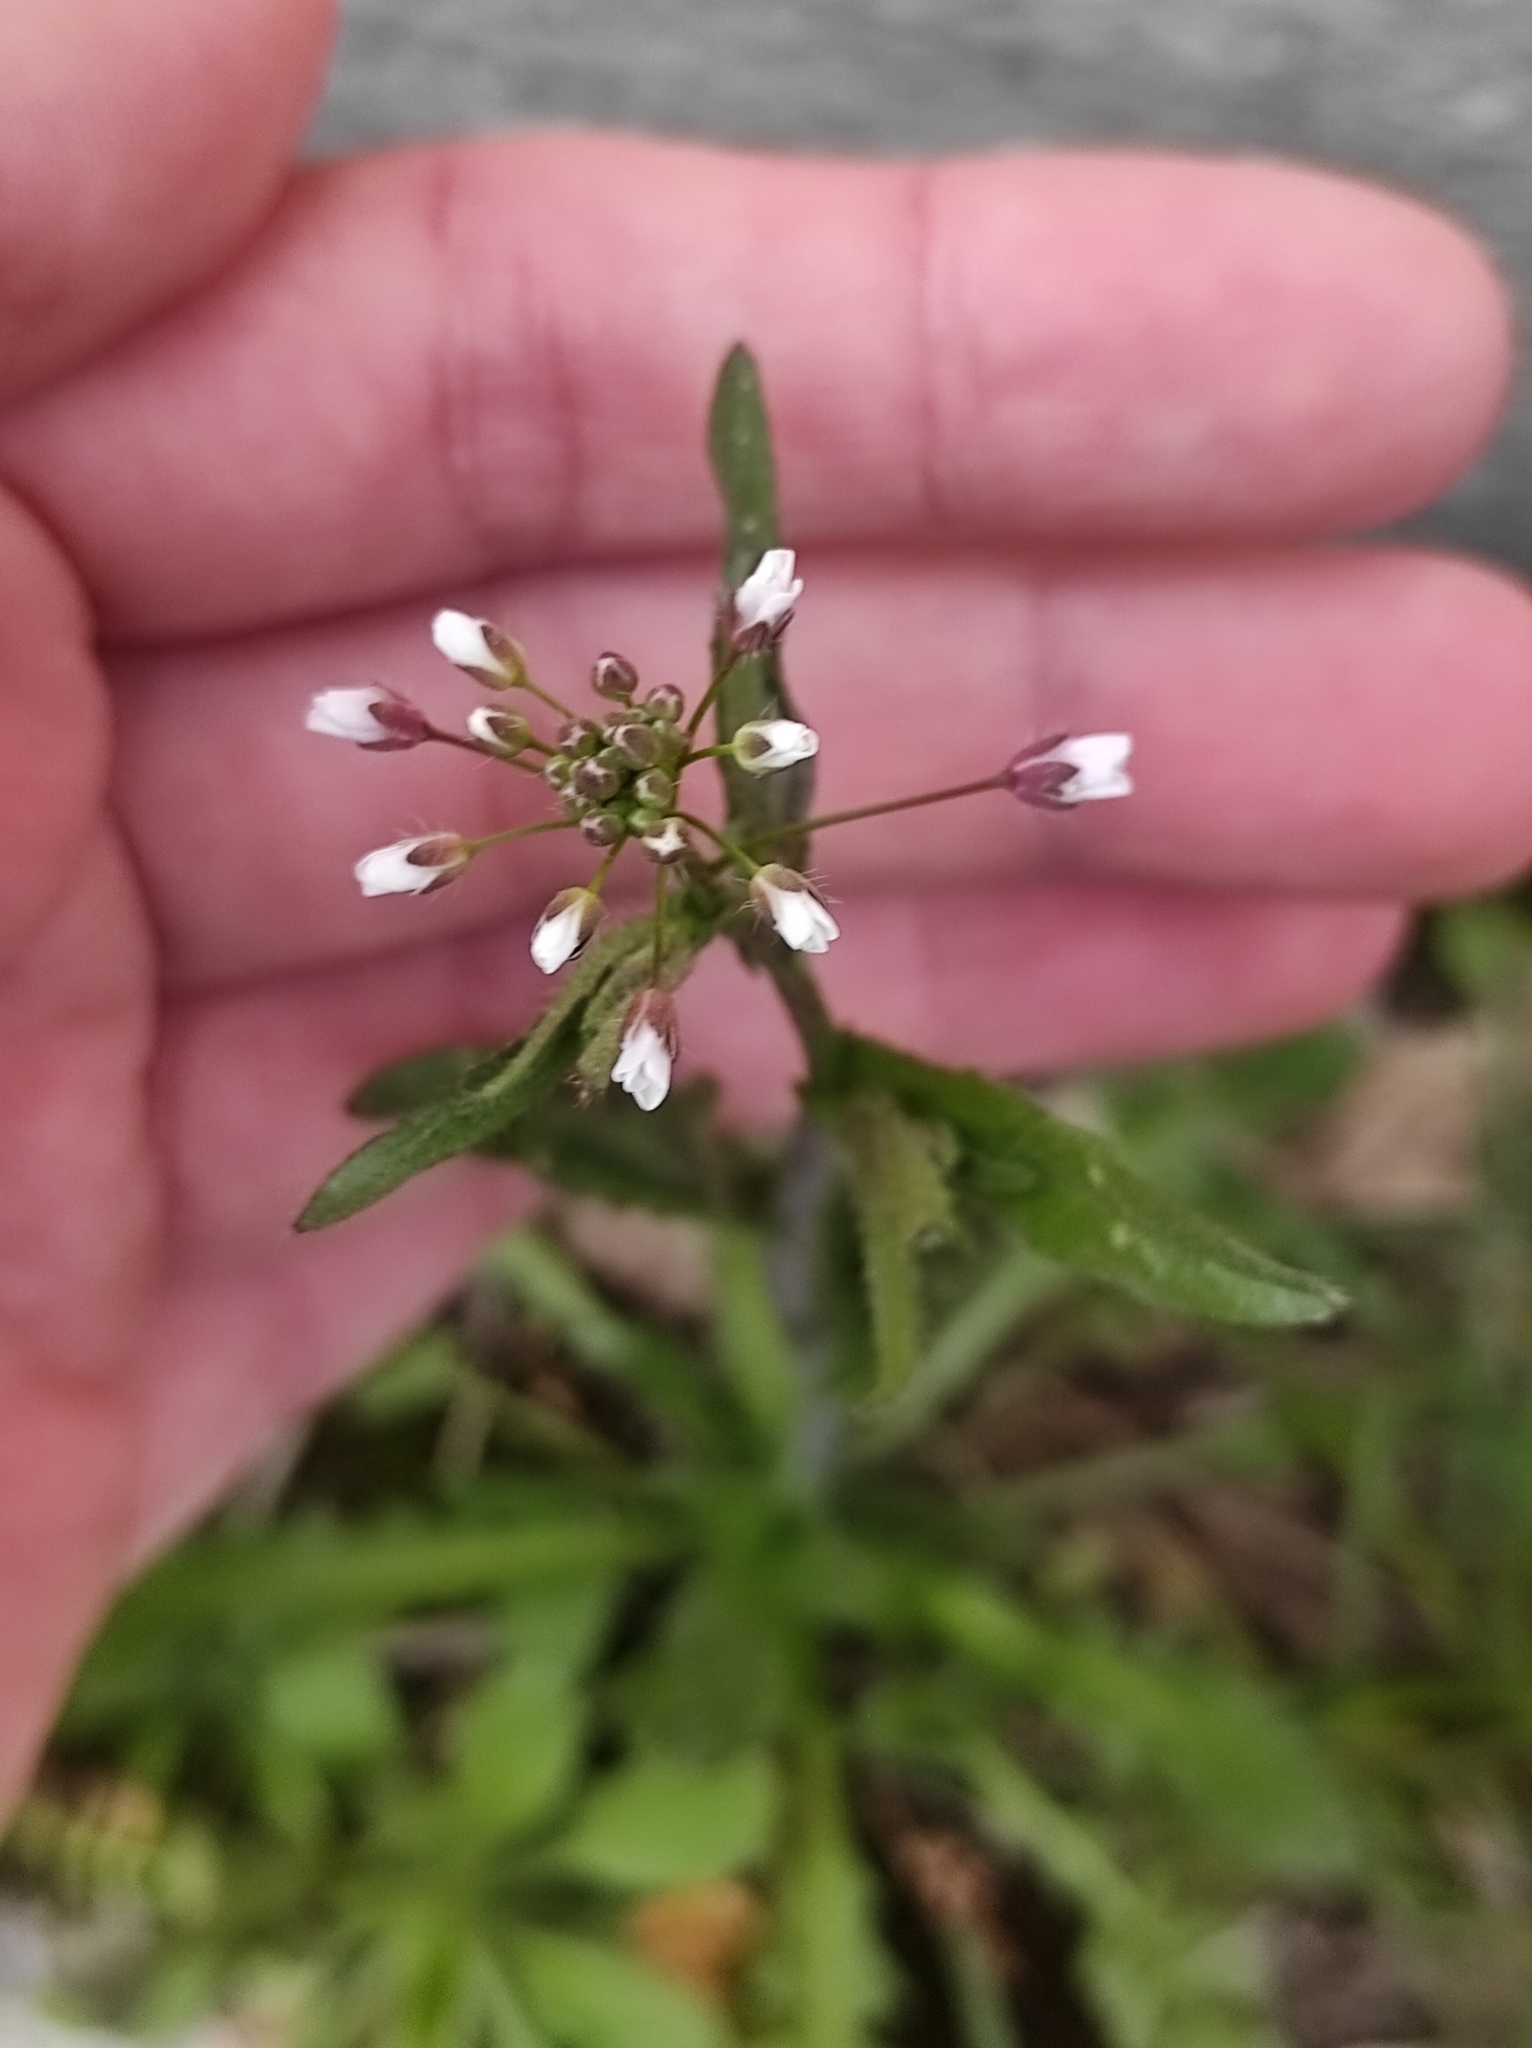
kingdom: Plantae
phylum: Tracheophyta
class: Magnoliopsida
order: Brassicales
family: Brassicaceae
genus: Capsella
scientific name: Capsella bursa-pastoris
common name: Shepherd's purse
